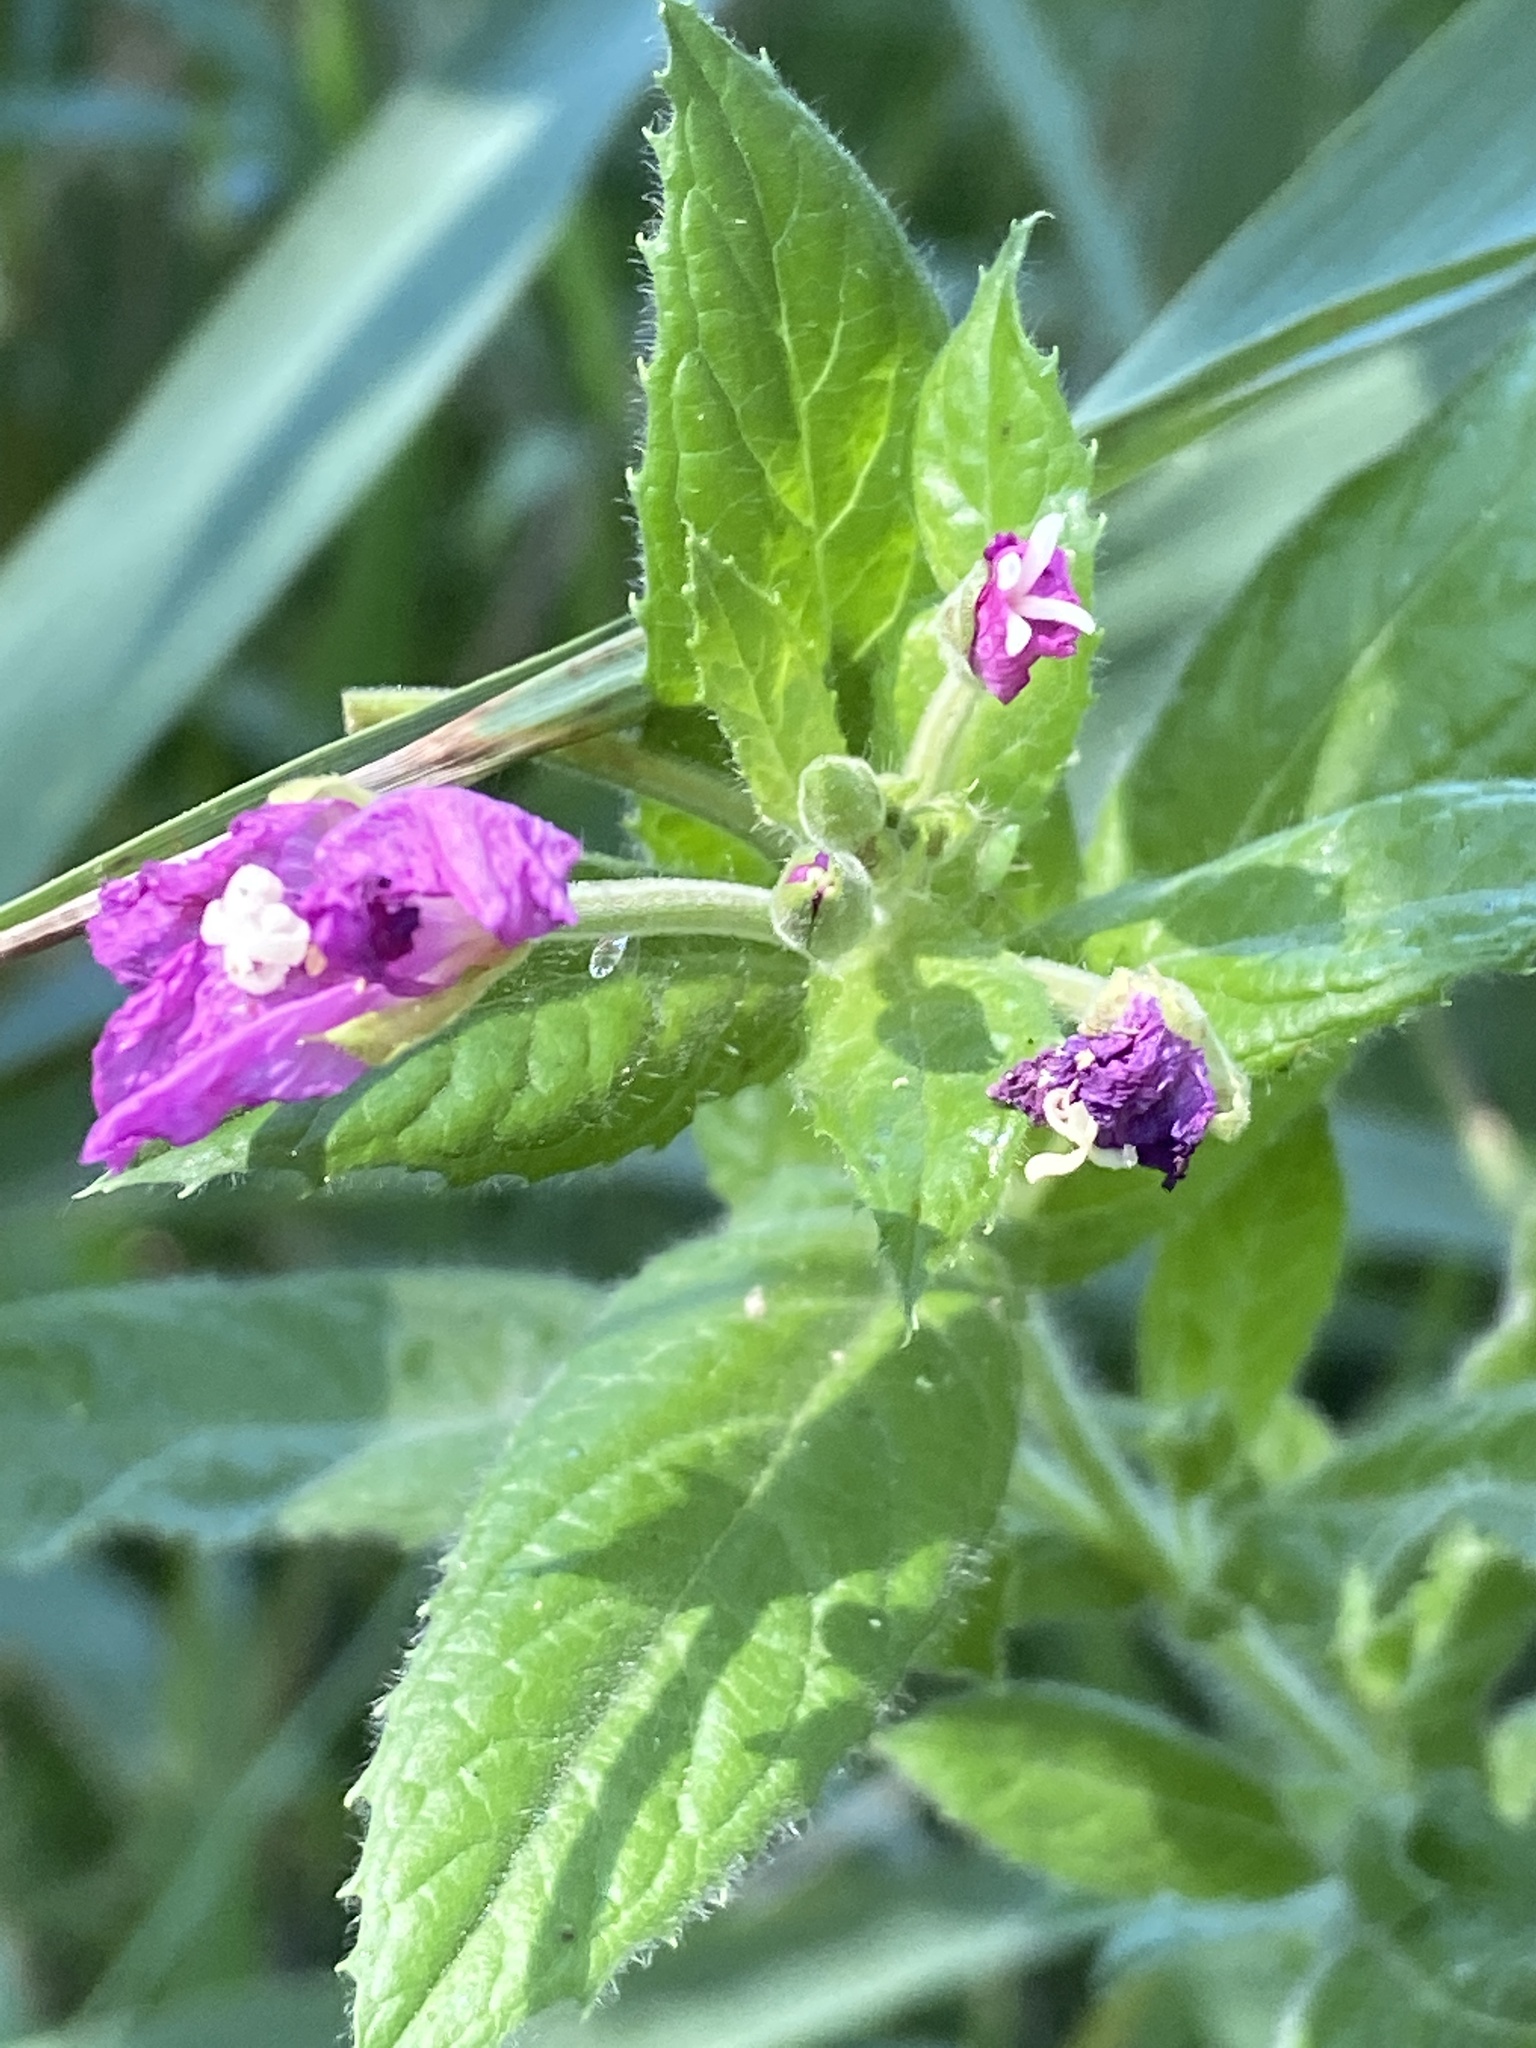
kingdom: Plantae
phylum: Tracheophyta
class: Magnoliopsida
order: Myrtales
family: Onagraceae
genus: Epilobium
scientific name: Epilobium hirsutum
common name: Great willowherb
